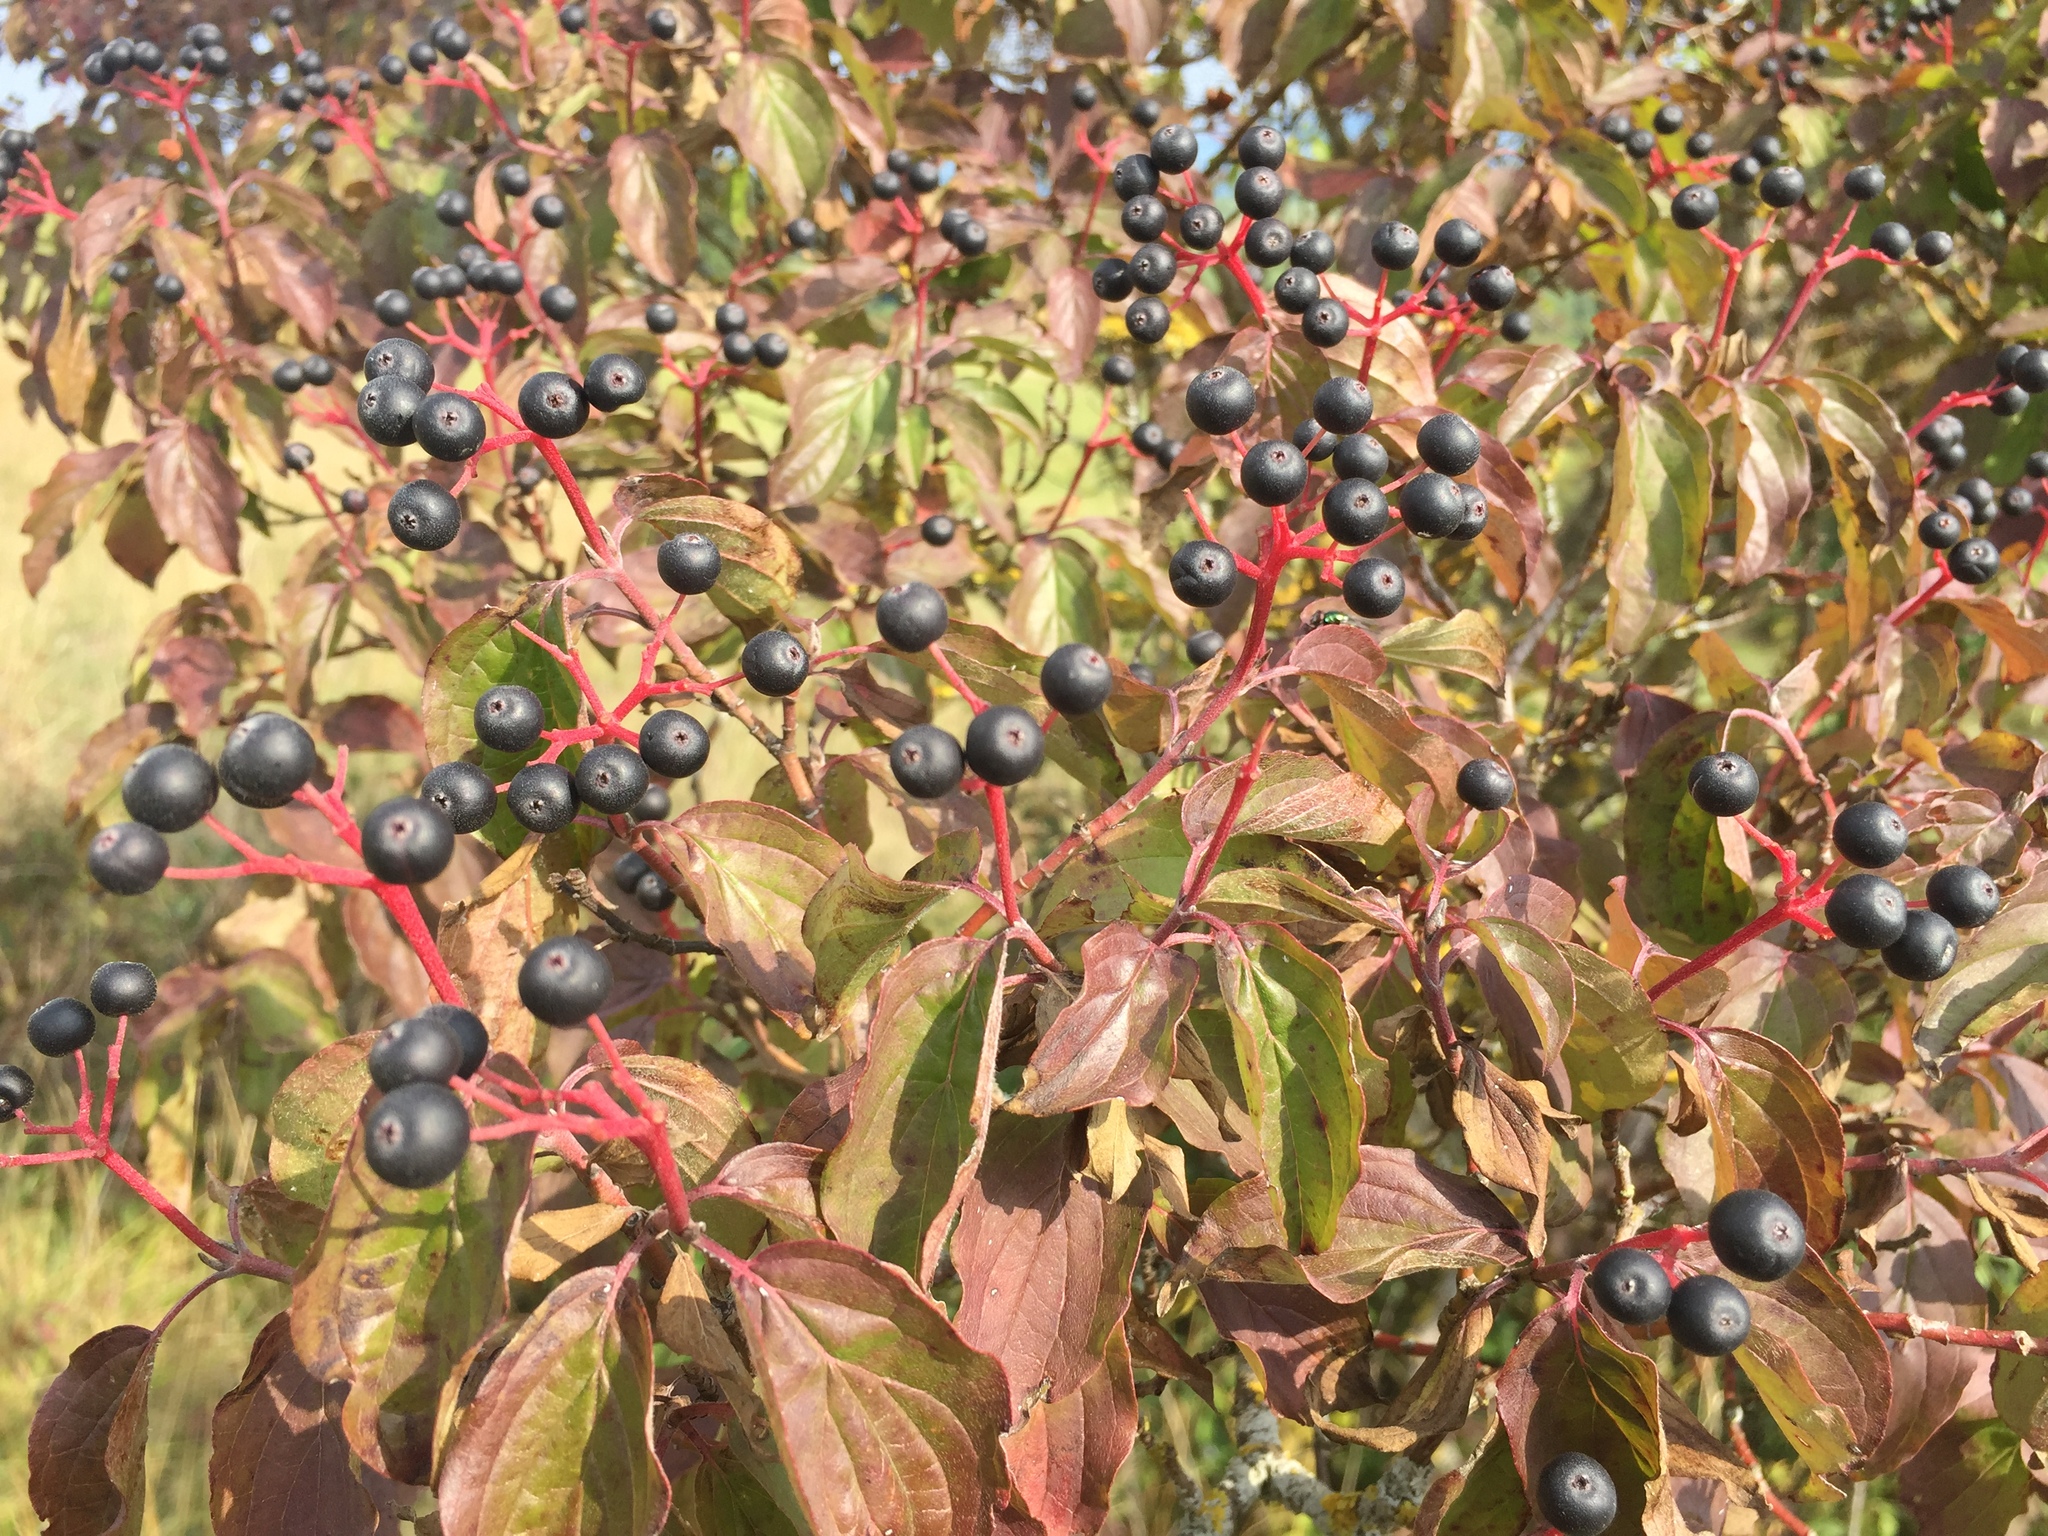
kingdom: Plantae
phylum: Tracheophyta
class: Magnoliopsida
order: Cornales
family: Cornaceae
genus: Cornus
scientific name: Cornus sanguinea
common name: Dogwood
